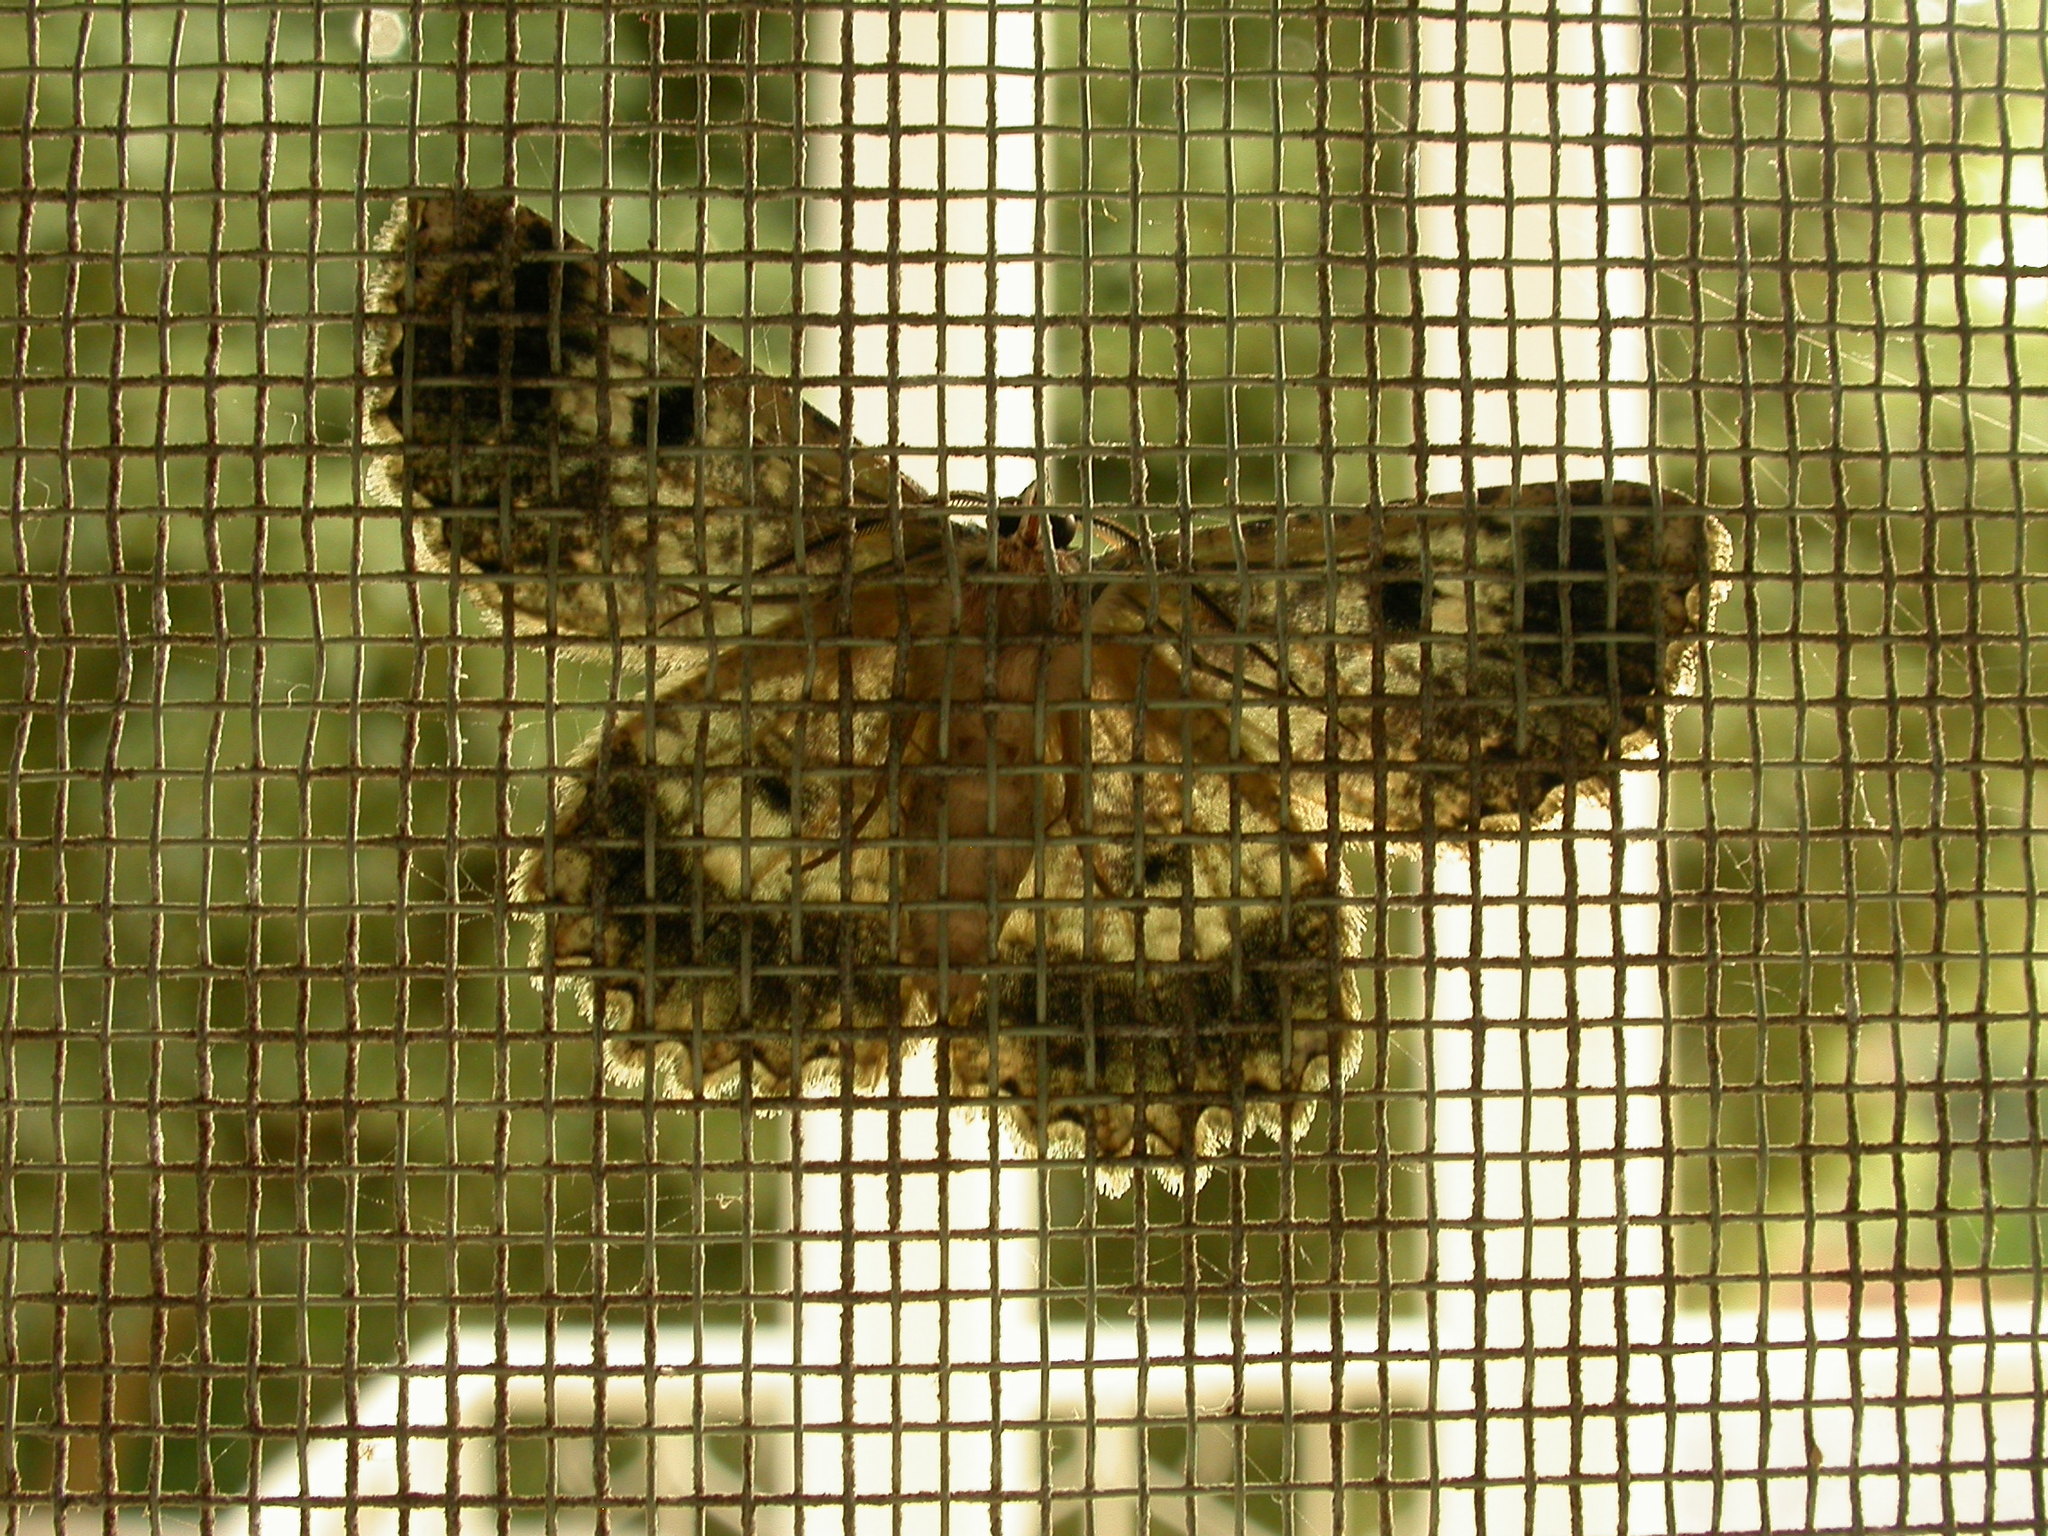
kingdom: Animalia
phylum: Arthropoda
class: Insecta
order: Lepidoptera
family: Geometridae
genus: Hypodoxa
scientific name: Hypodoxa muscosaria
